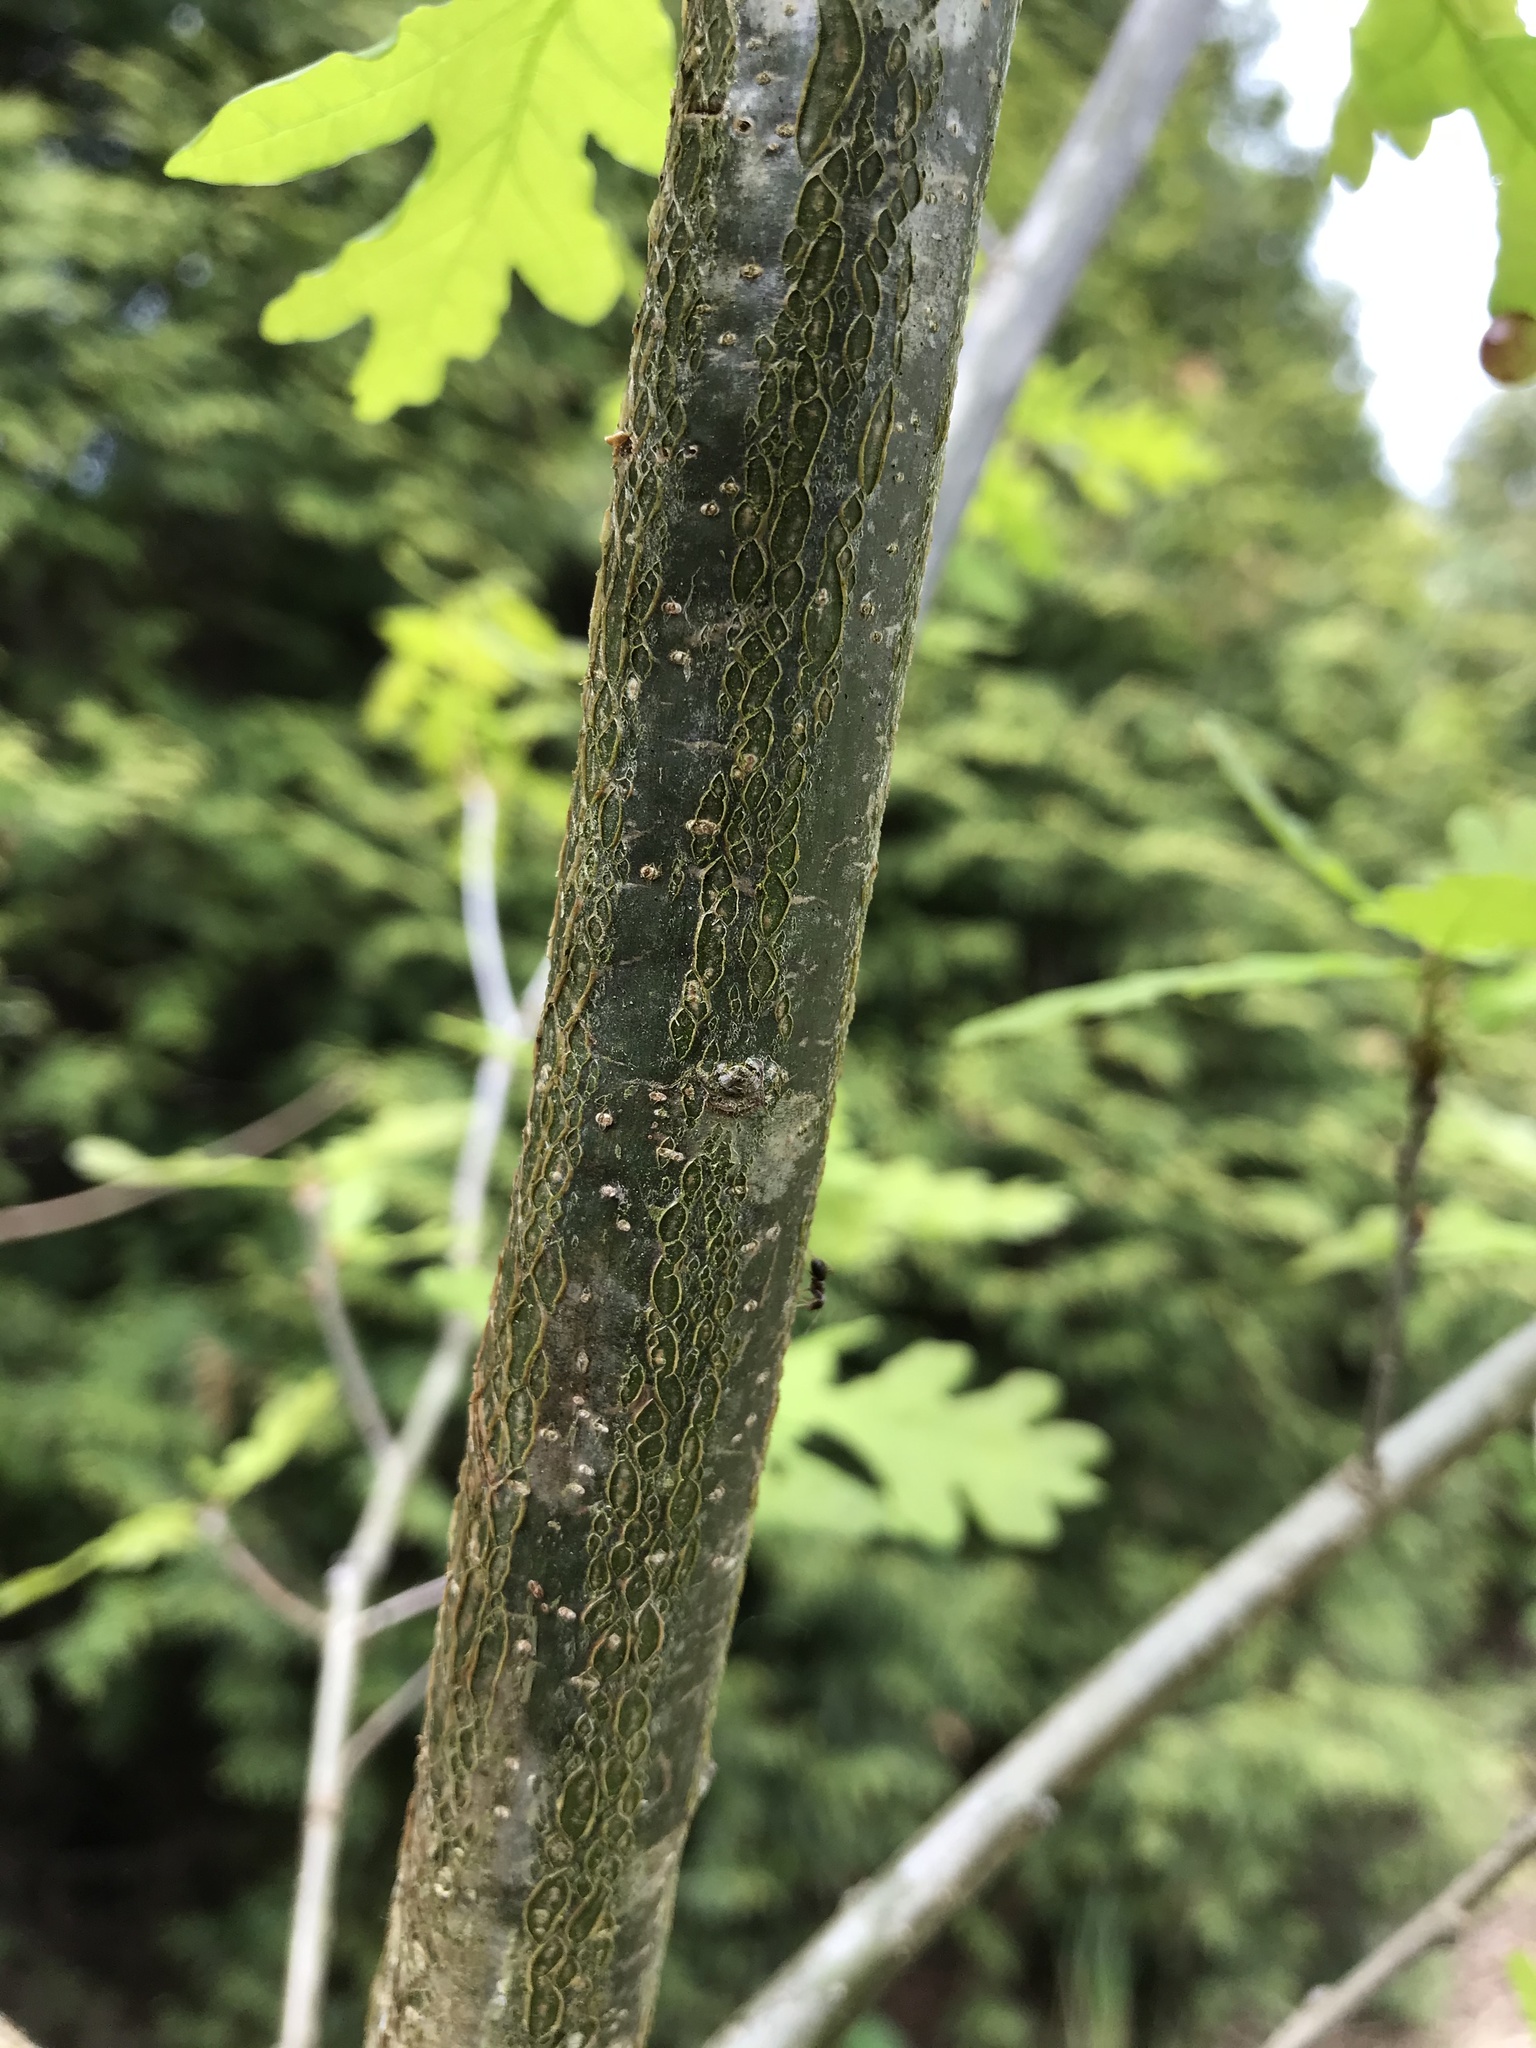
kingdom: Plantae
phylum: Tracheophyta
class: Magnoliopsida
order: Fagales
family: Fagaceae
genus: Quercus
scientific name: Quercus robur
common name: Pedunculate oak
